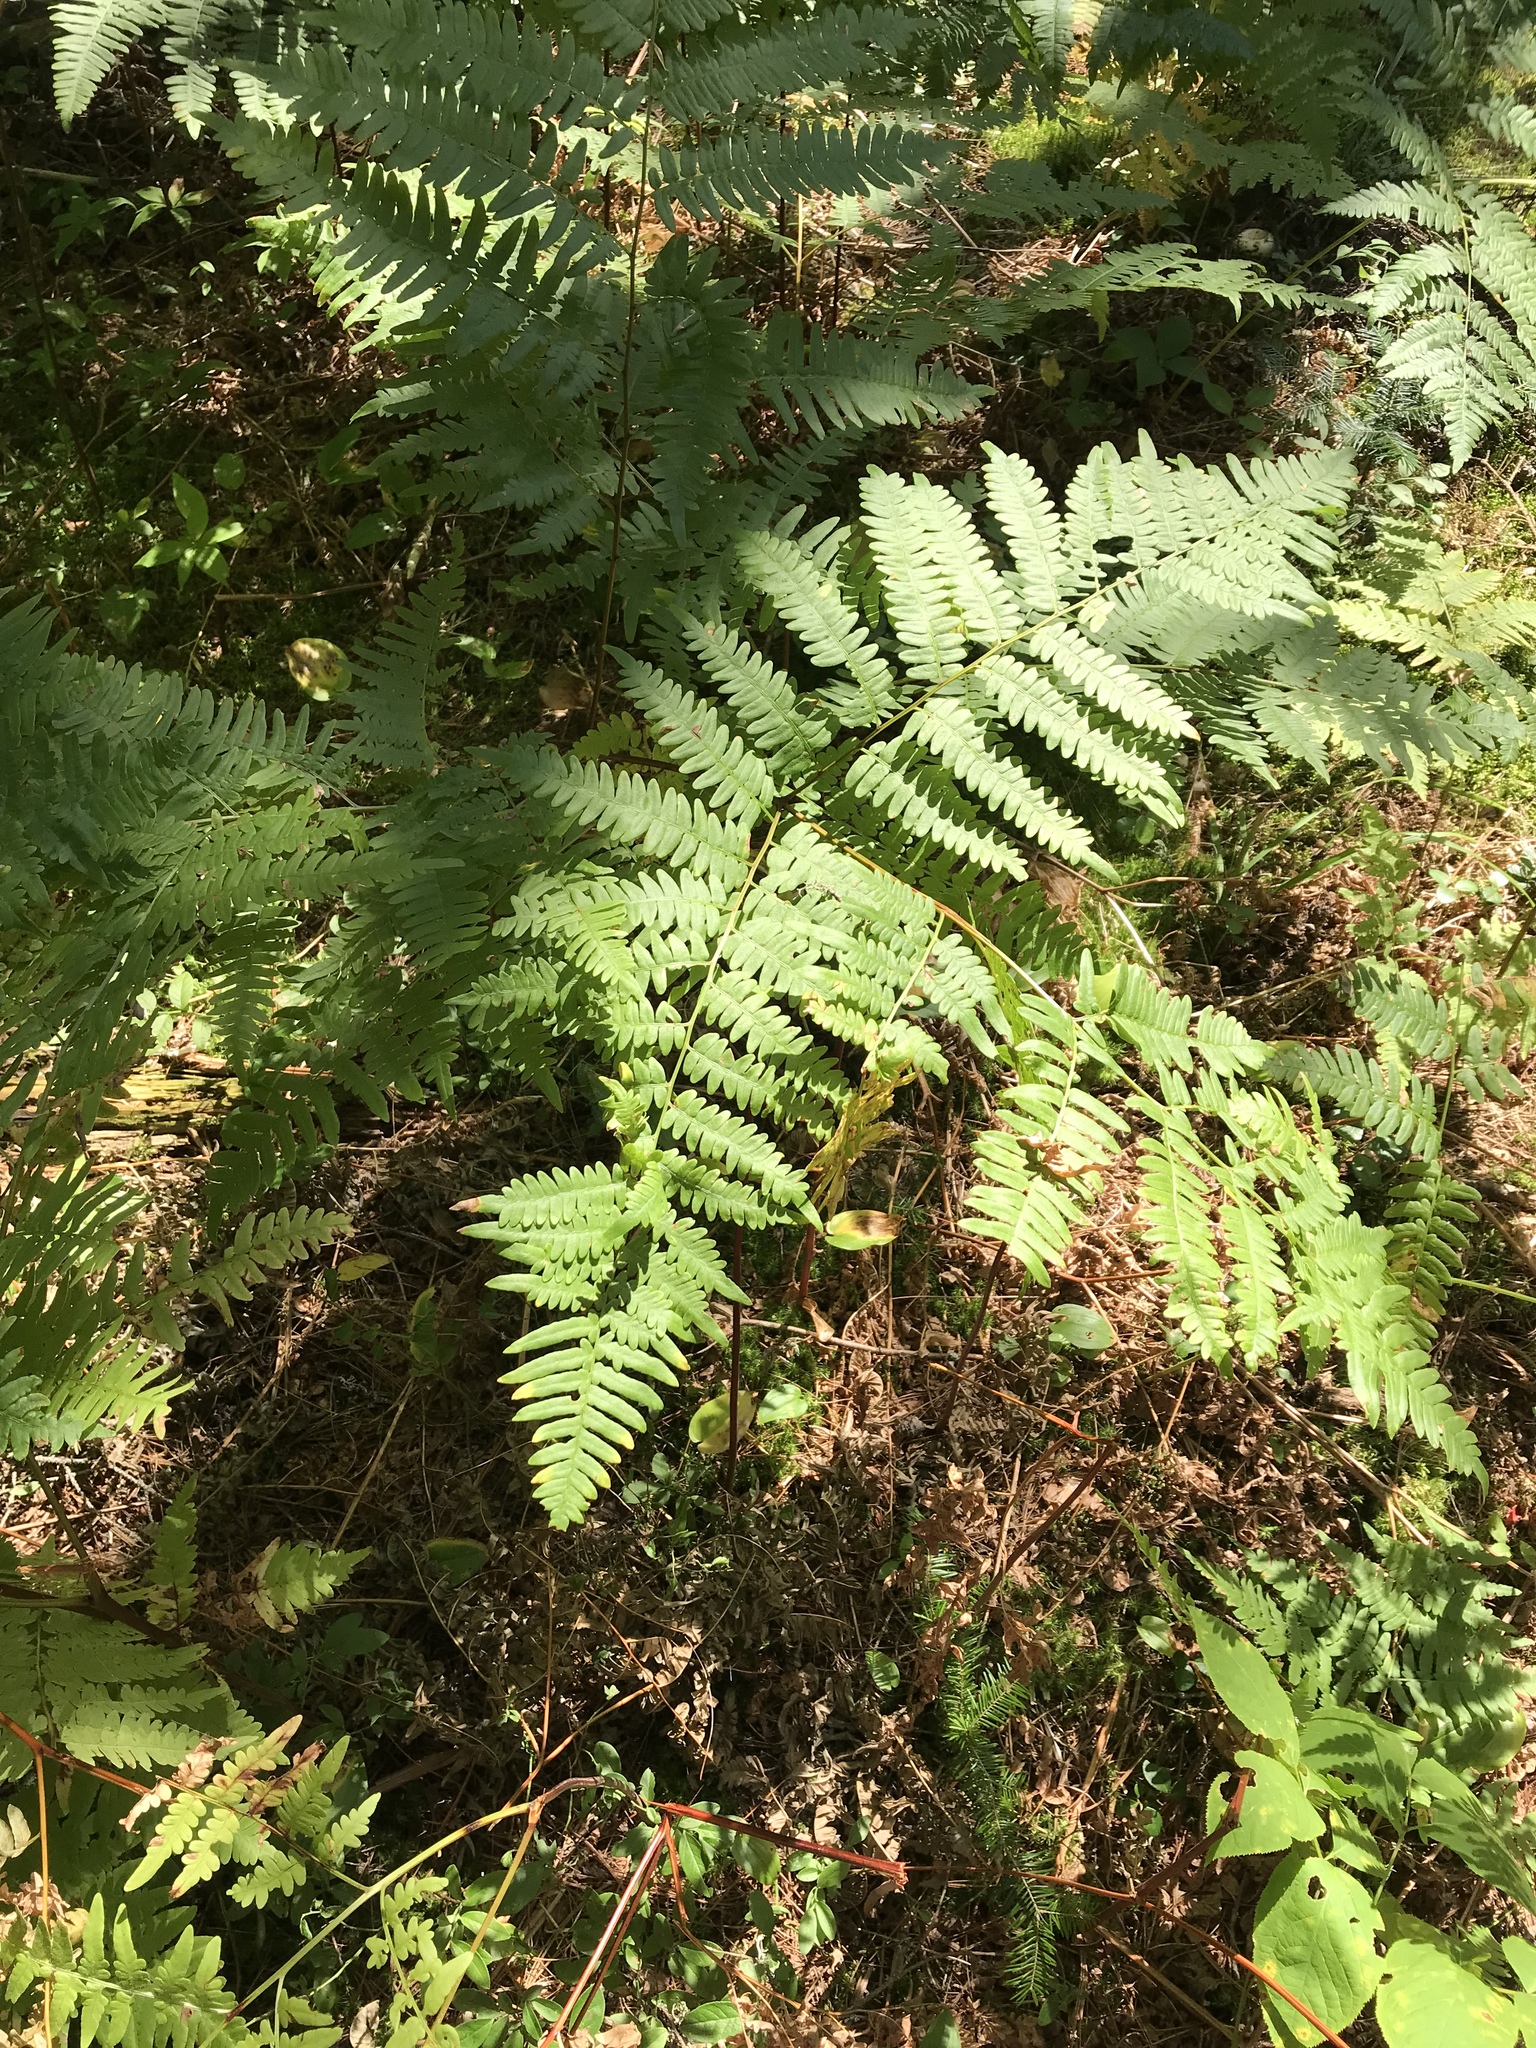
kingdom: Plantae
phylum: Tracheophyta
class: Polypodiopsida
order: Polypodiales
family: Dennstaedtiaceae
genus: Pteridium
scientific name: Pteridium aquilinum
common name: Bracken
